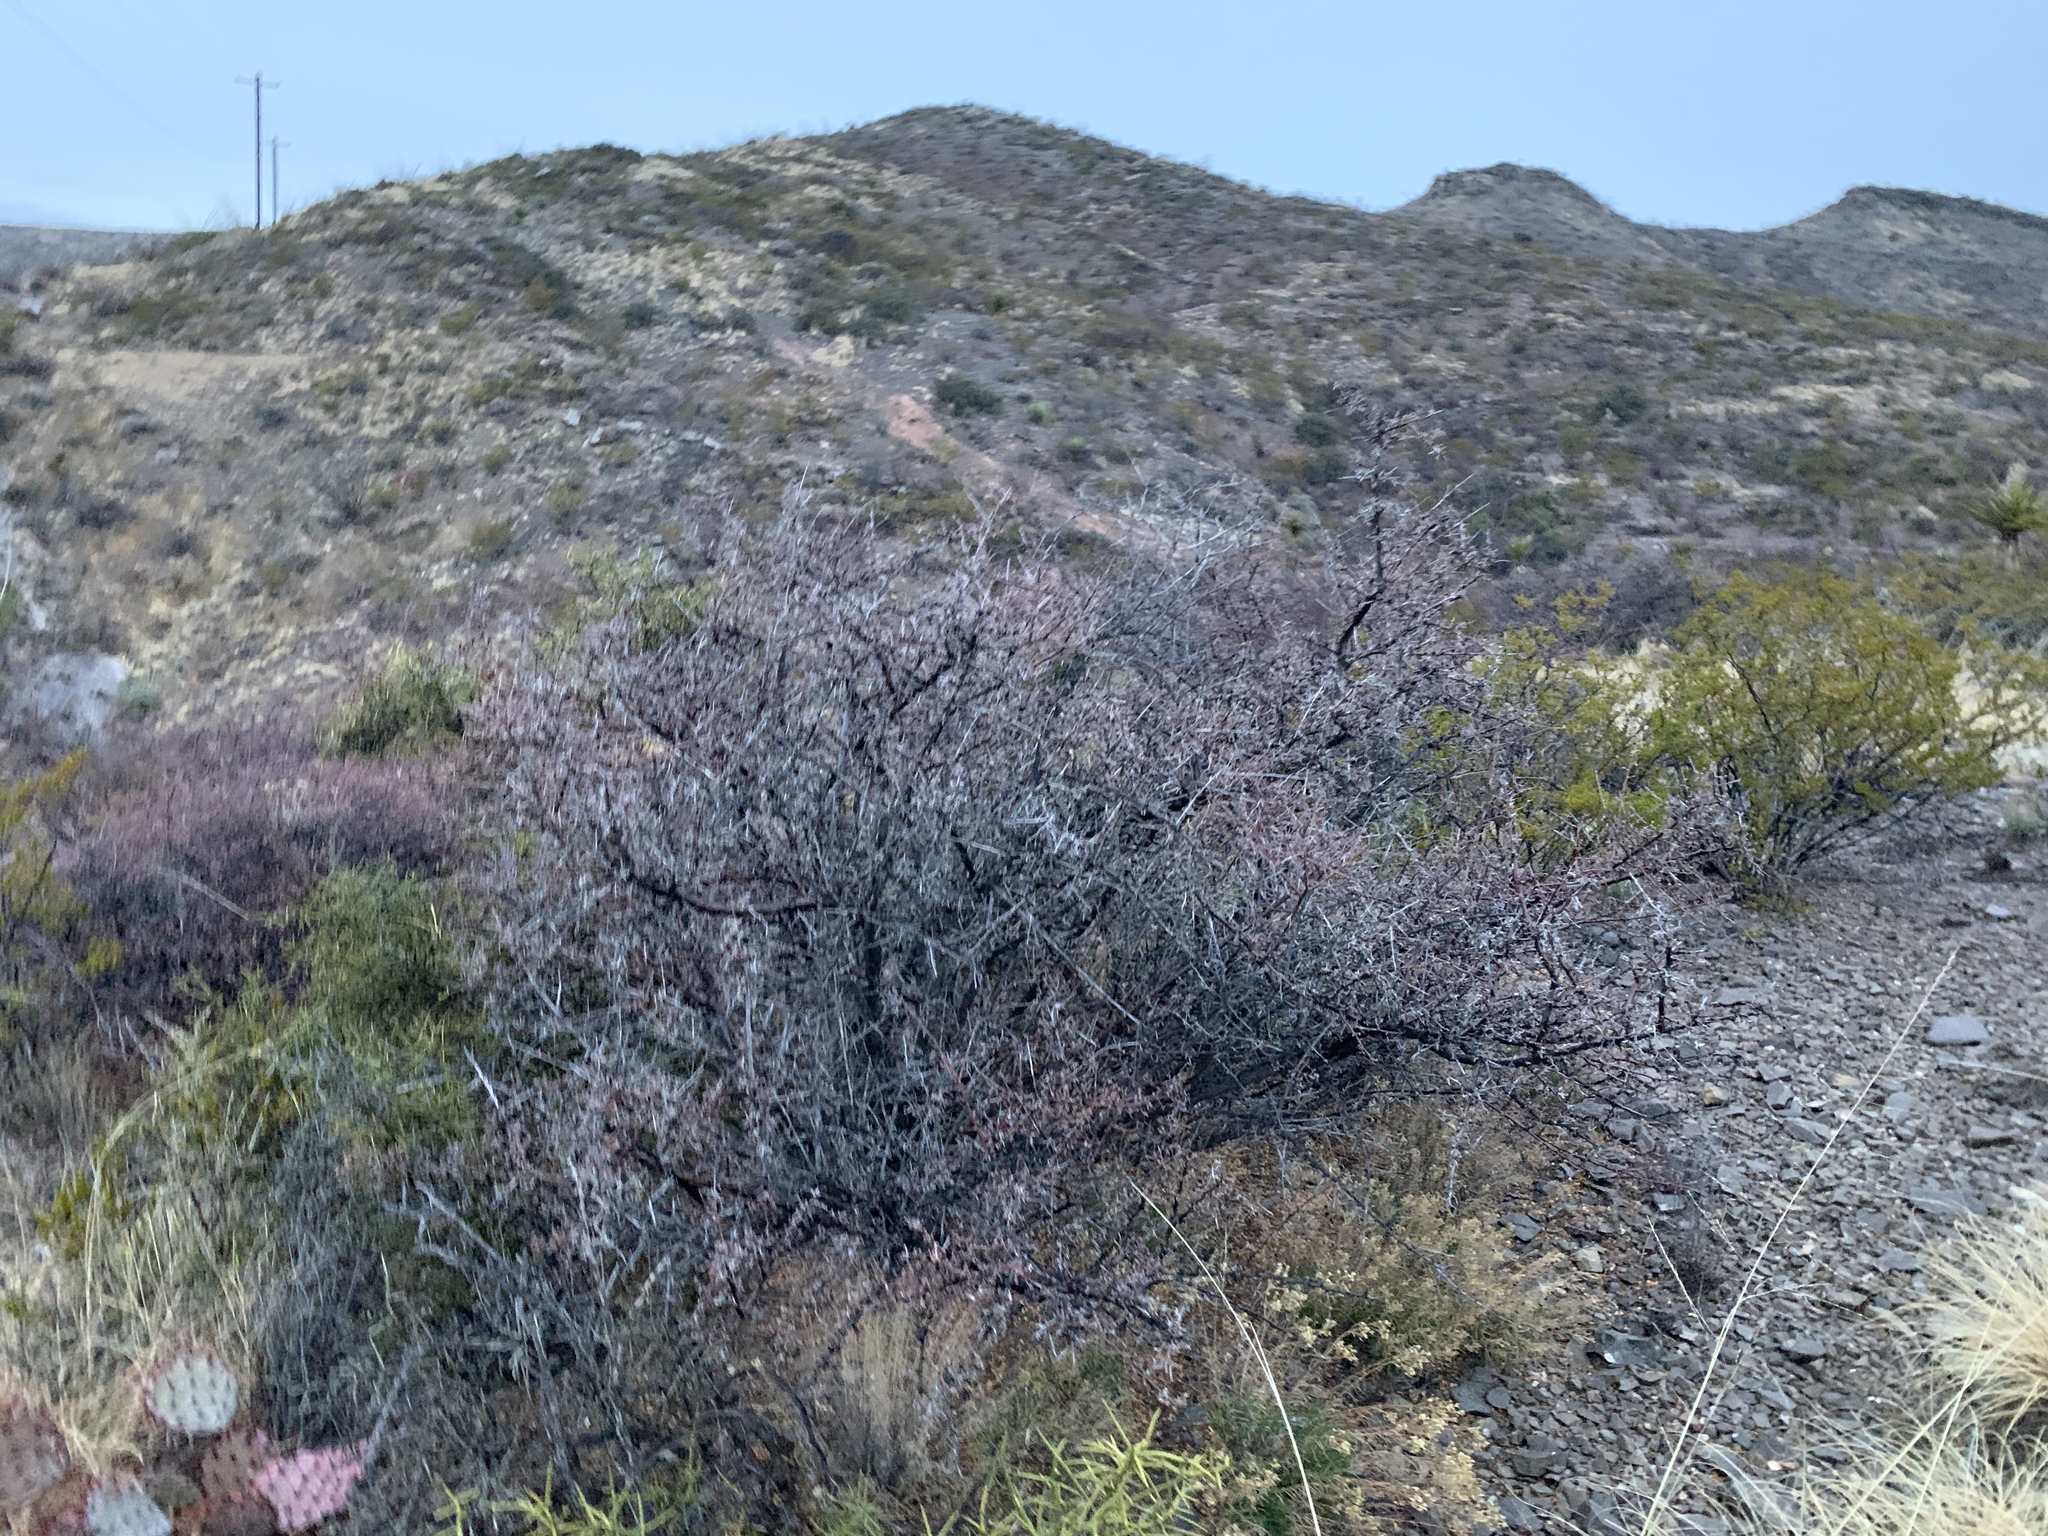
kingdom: Plantae
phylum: Tracheophyta
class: Magnoliopsida
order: Sapindales
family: Anacardiaceae
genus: Rhus
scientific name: Rhus microphylla
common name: Desert sumac
